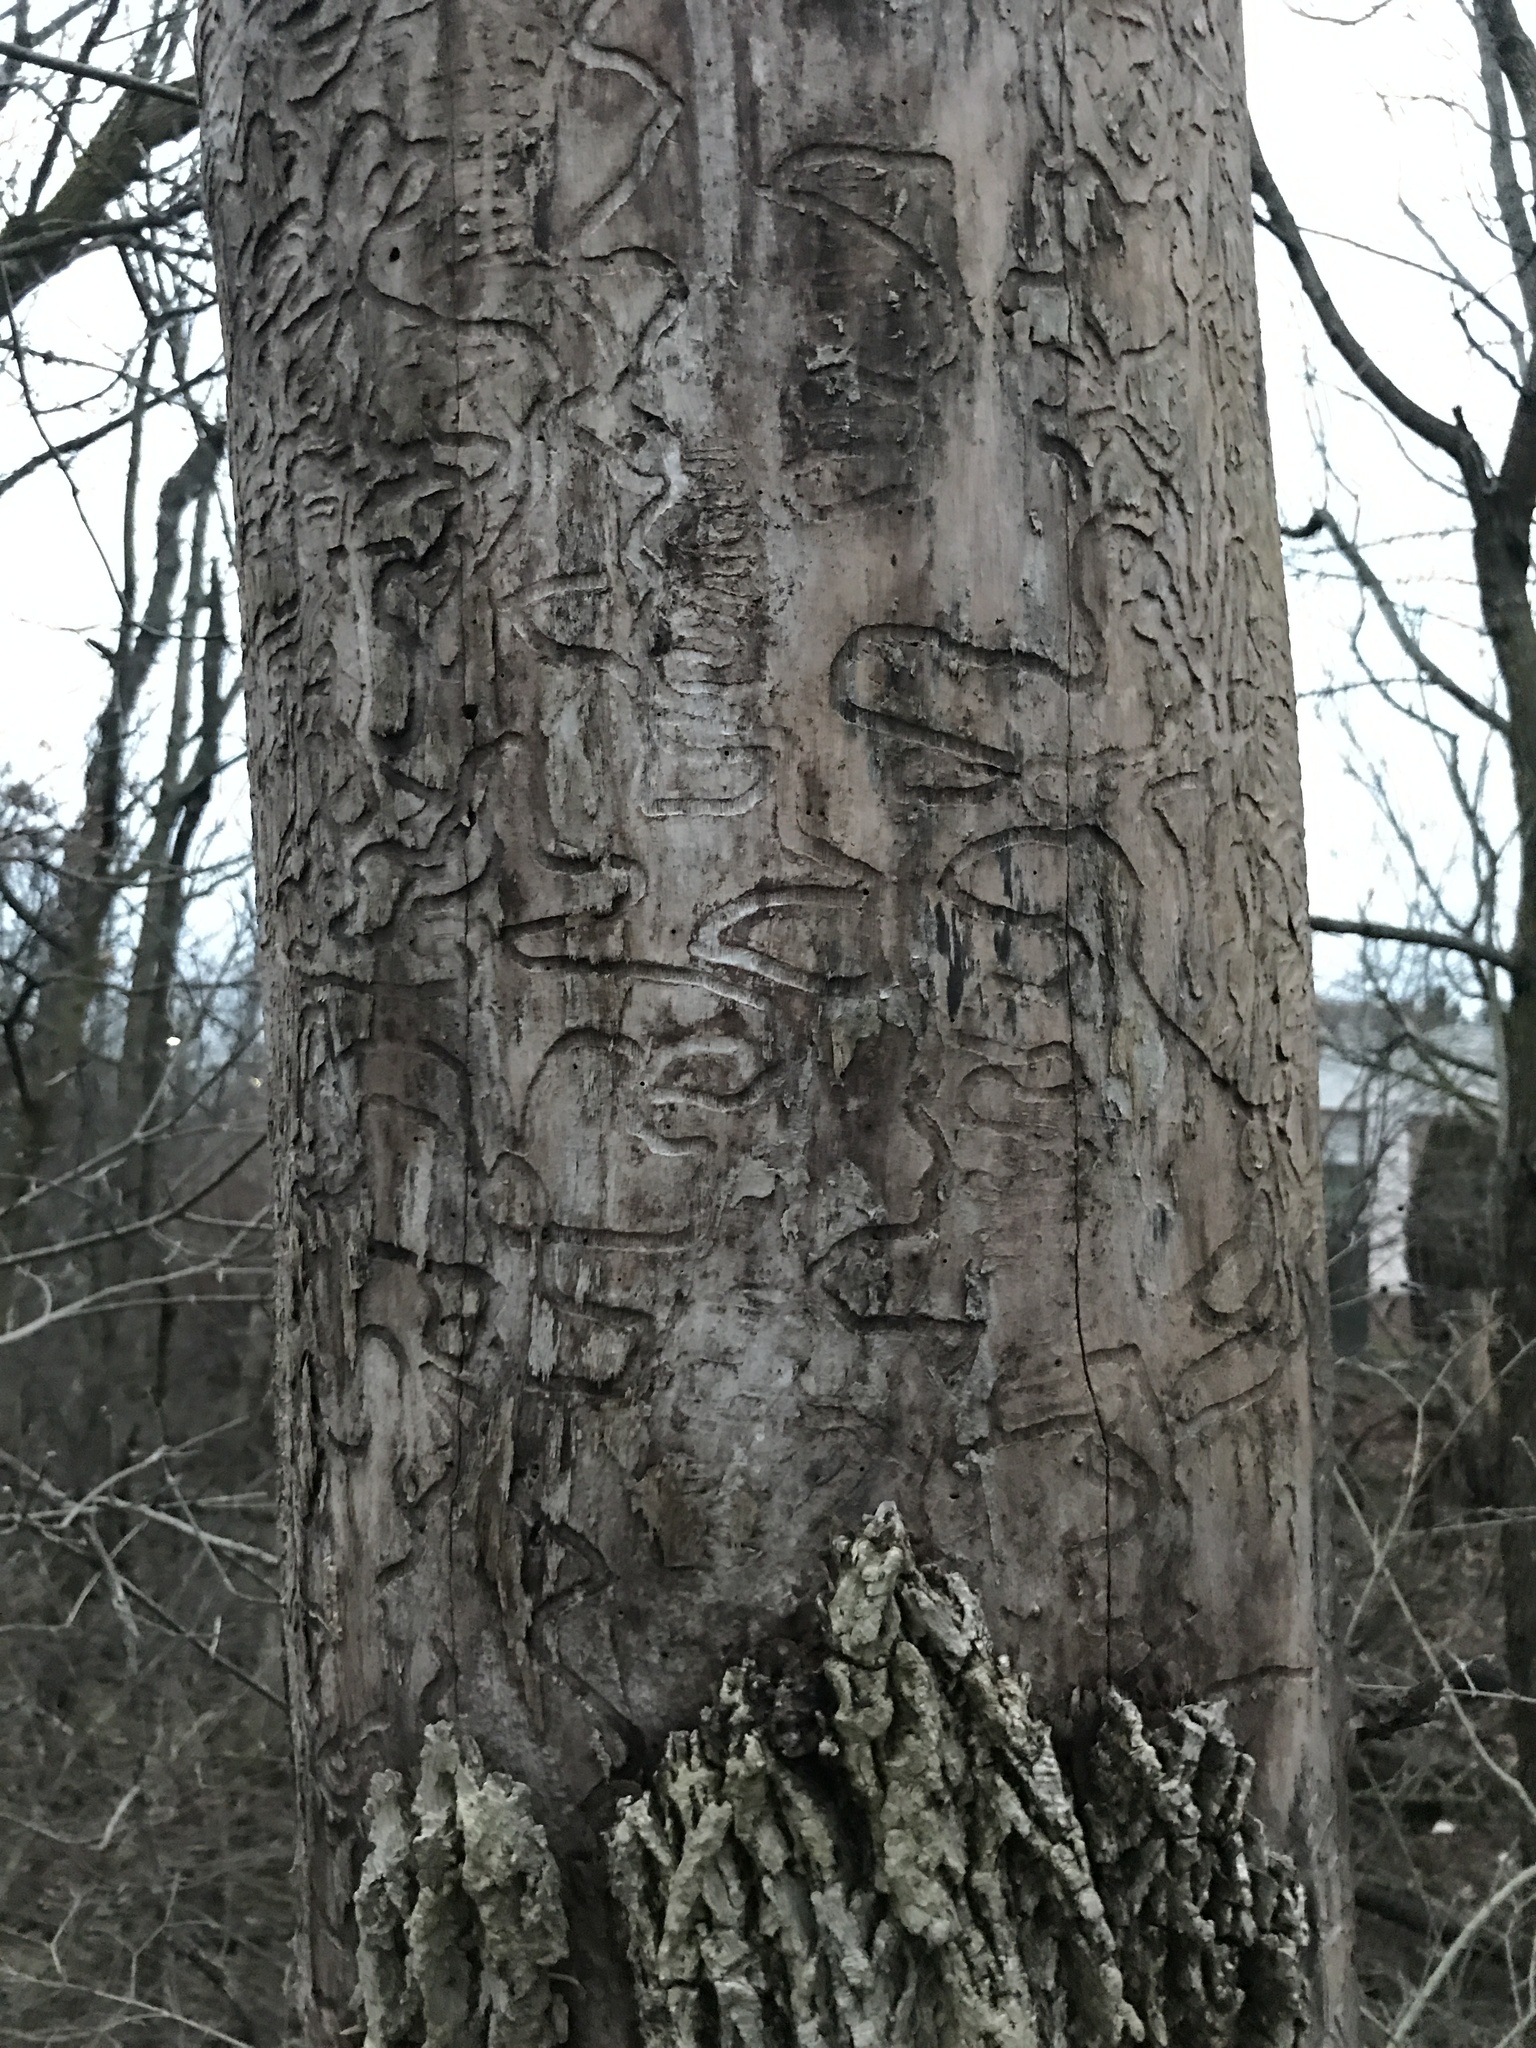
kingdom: Animalia
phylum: Arthropoda
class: Insecta
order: Coleoptera
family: Buprestidae
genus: Agrilus
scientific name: Agrilus planipennis
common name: Emerald ash borer
